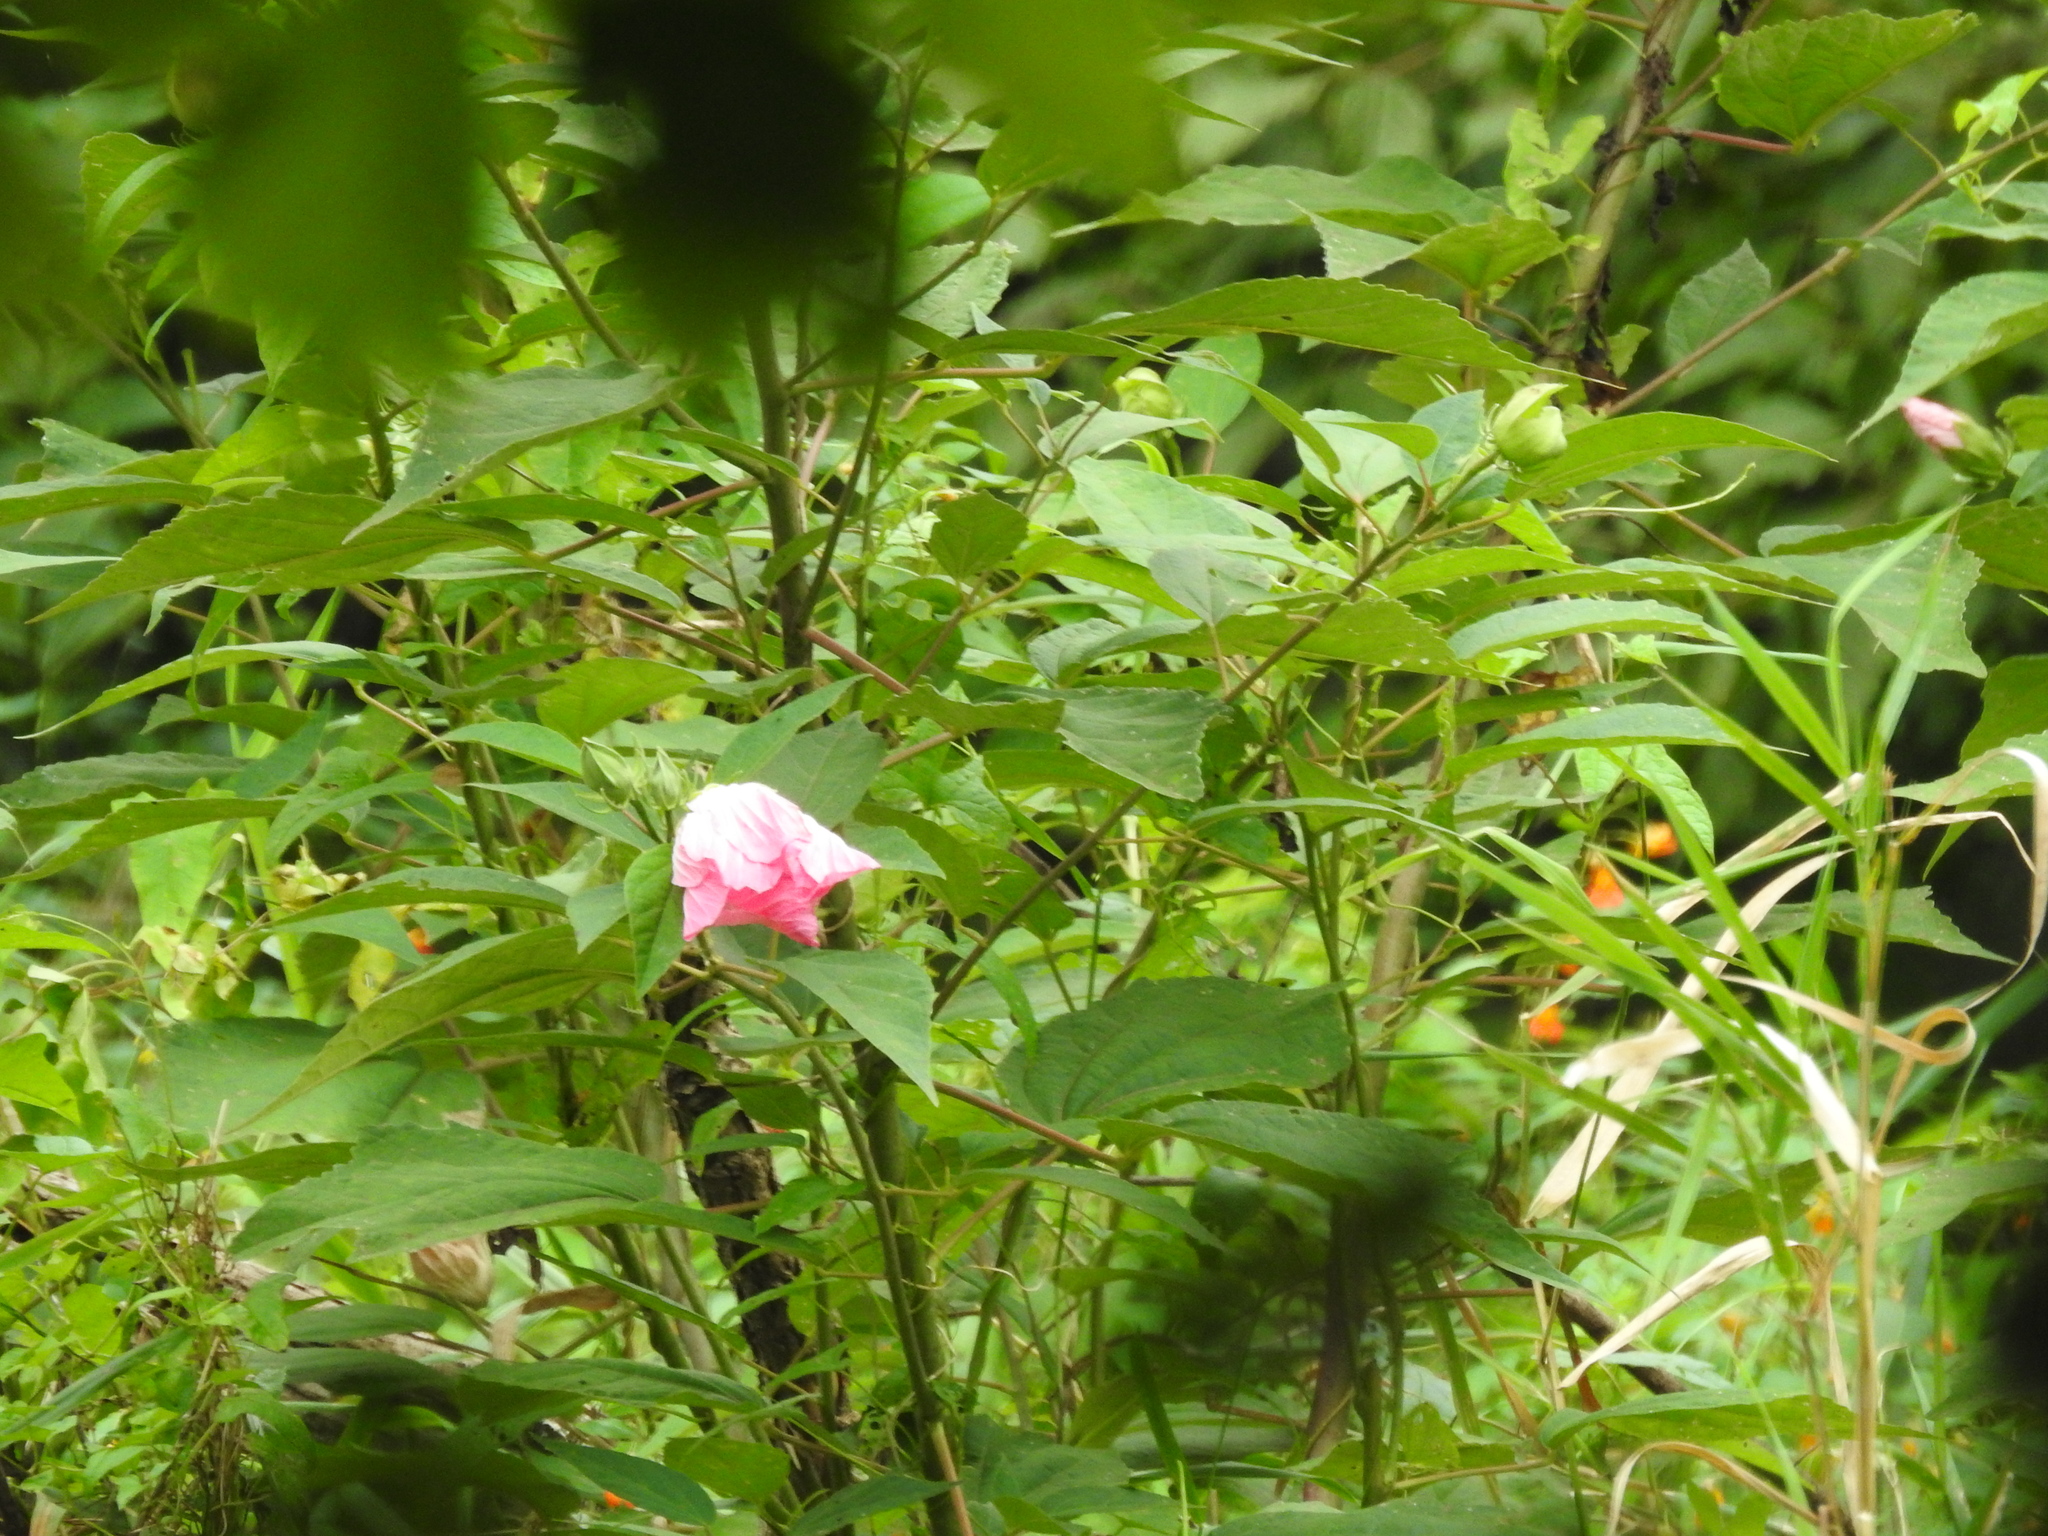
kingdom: Plantae
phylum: Tracheophyta
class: Magnoliopsida
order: Malvales
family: Malvaceae
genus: Hibiscus
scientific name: Hibiscus moscheutos
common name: Common rose-mallow
